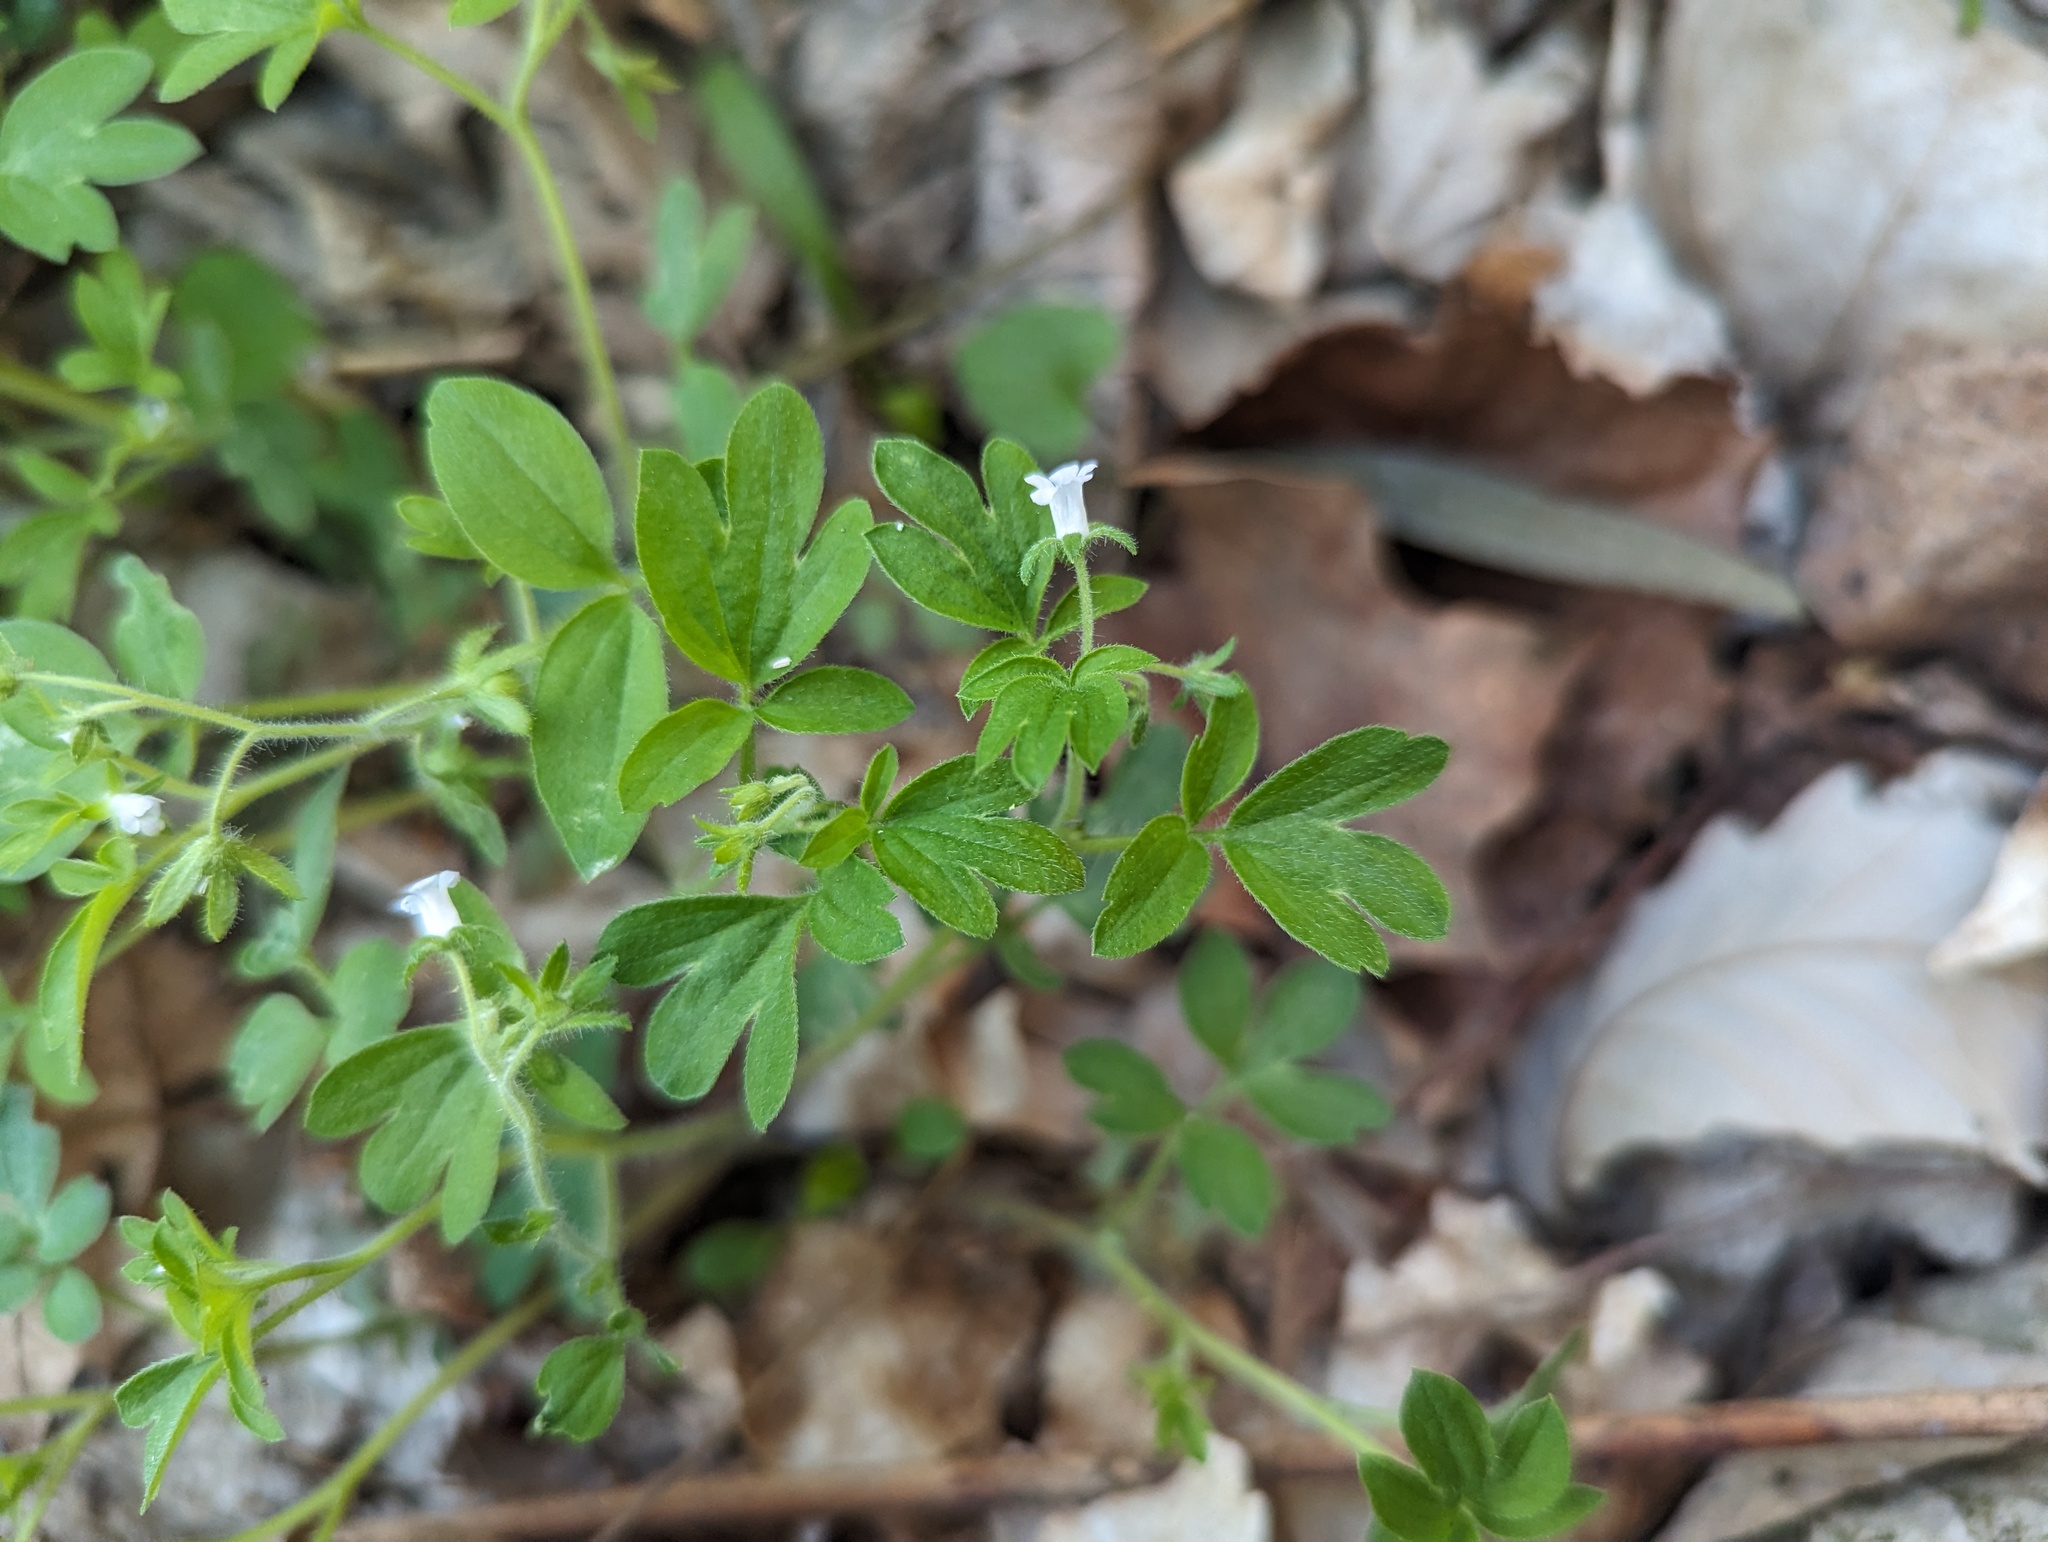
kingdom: Plantae
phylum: Tracheophyta
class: Magnoliopsida
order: Boraginales
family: Hydrophyllaceae
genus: Phacelia
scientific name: Phacelia ranunculacea
